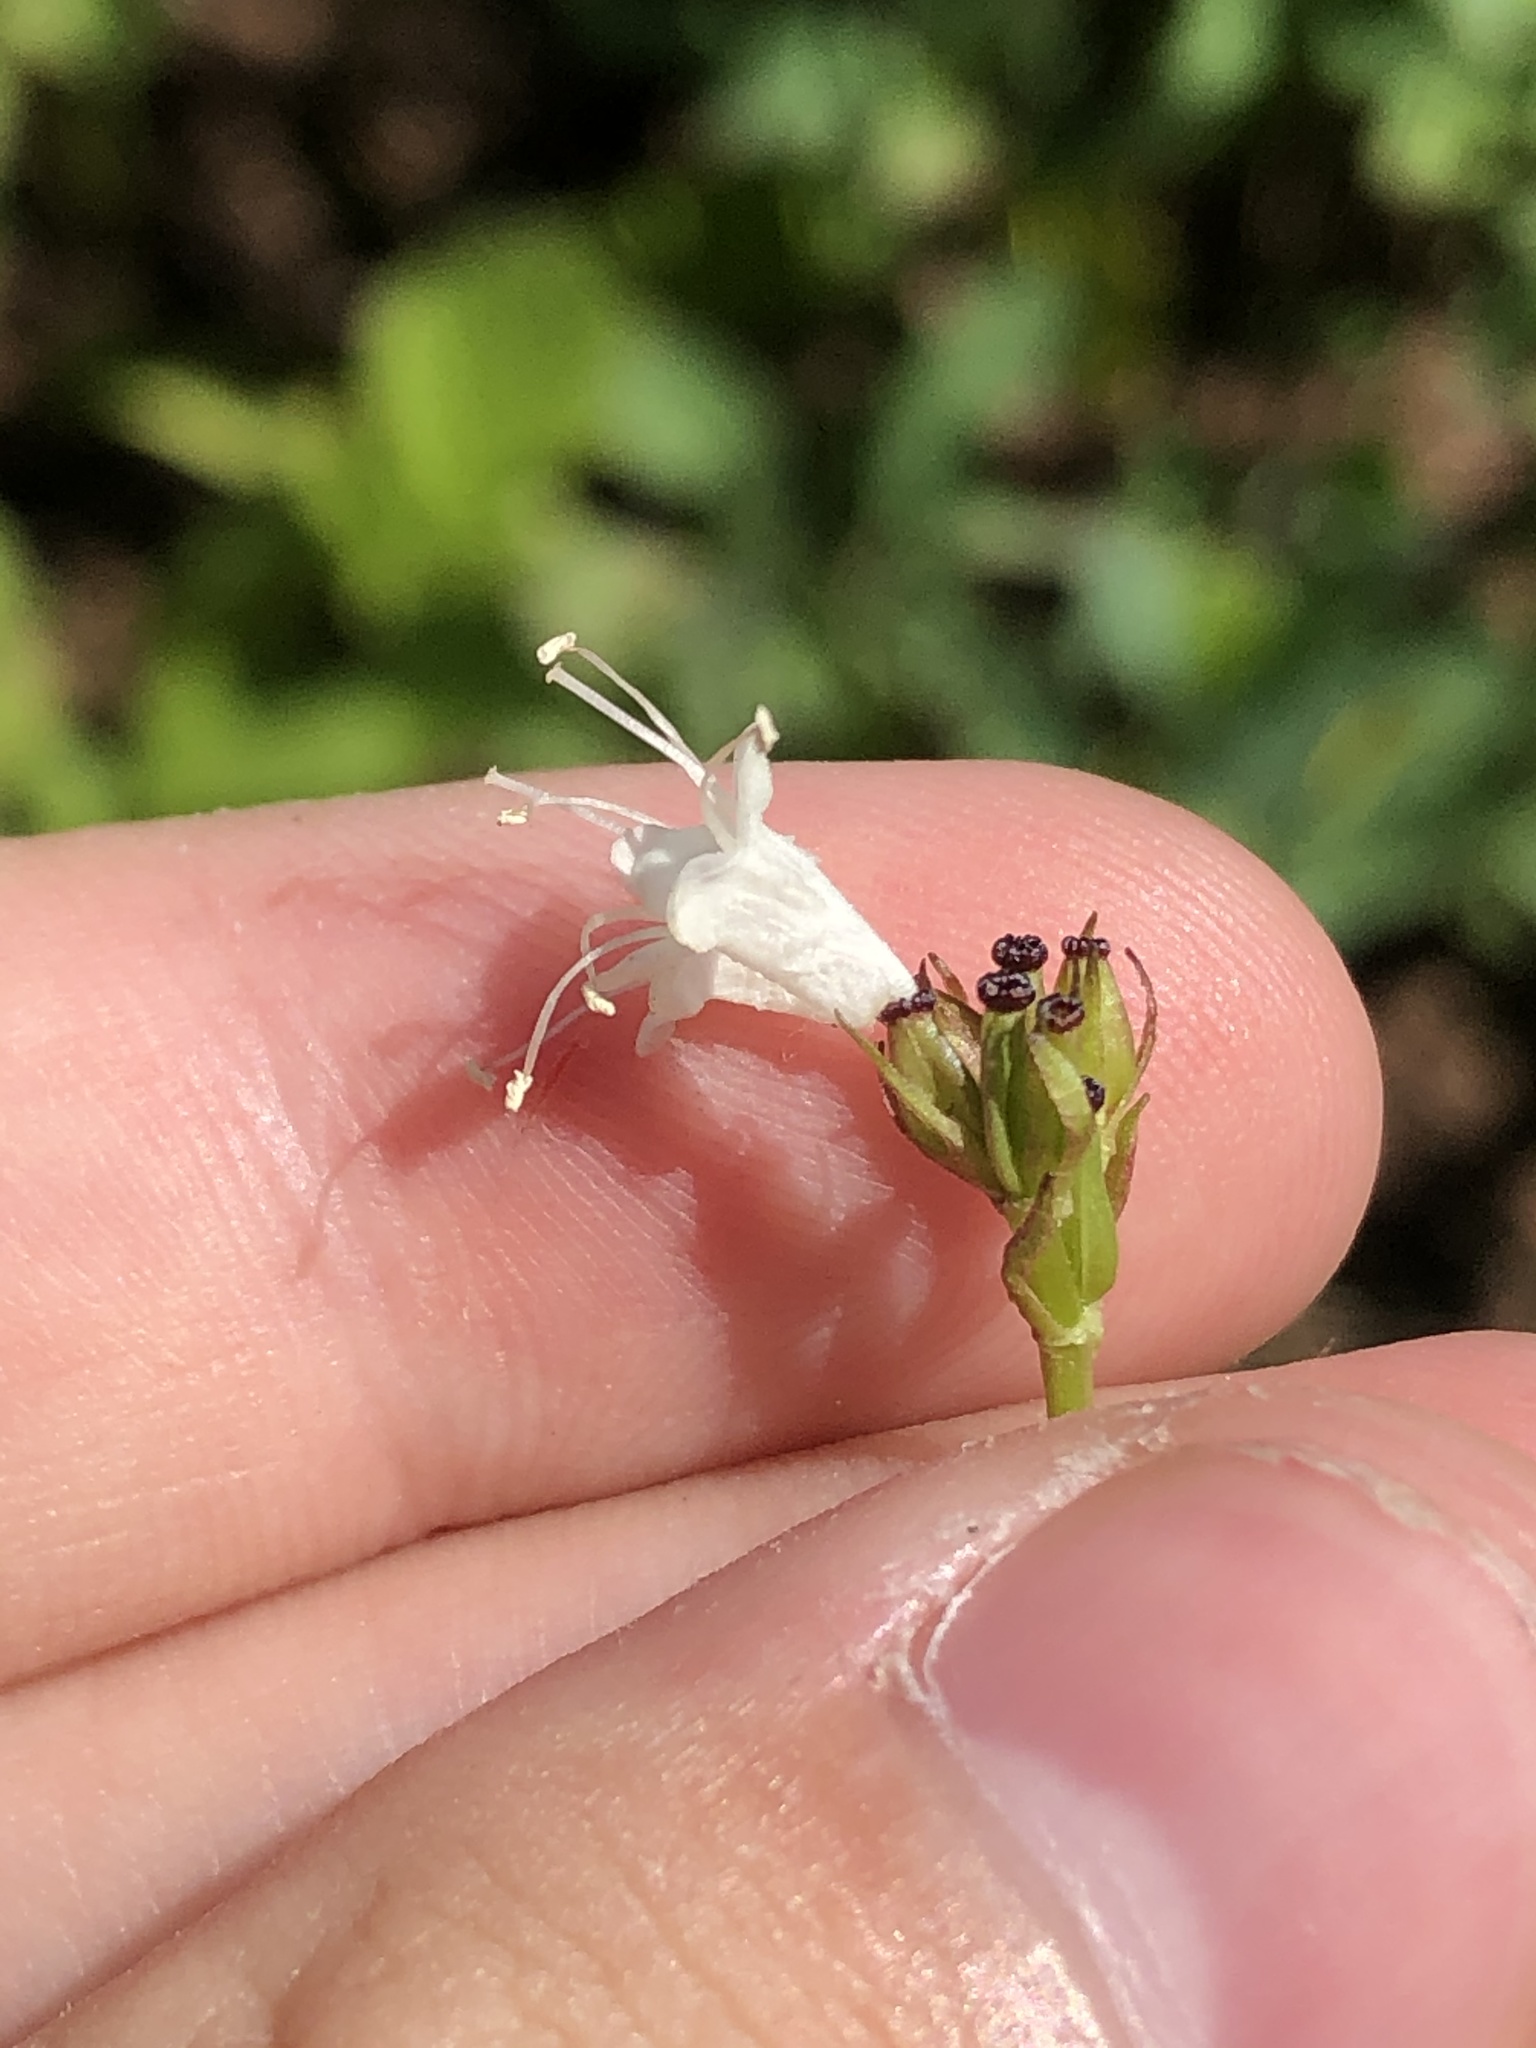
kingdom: Plantae
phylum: Tracheophyta
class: Magnoliopsida
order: Dipsacales
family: Caprifoliaceae
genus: Valeriana
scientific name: Valeriana sitchensis
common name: Pacific valerian
